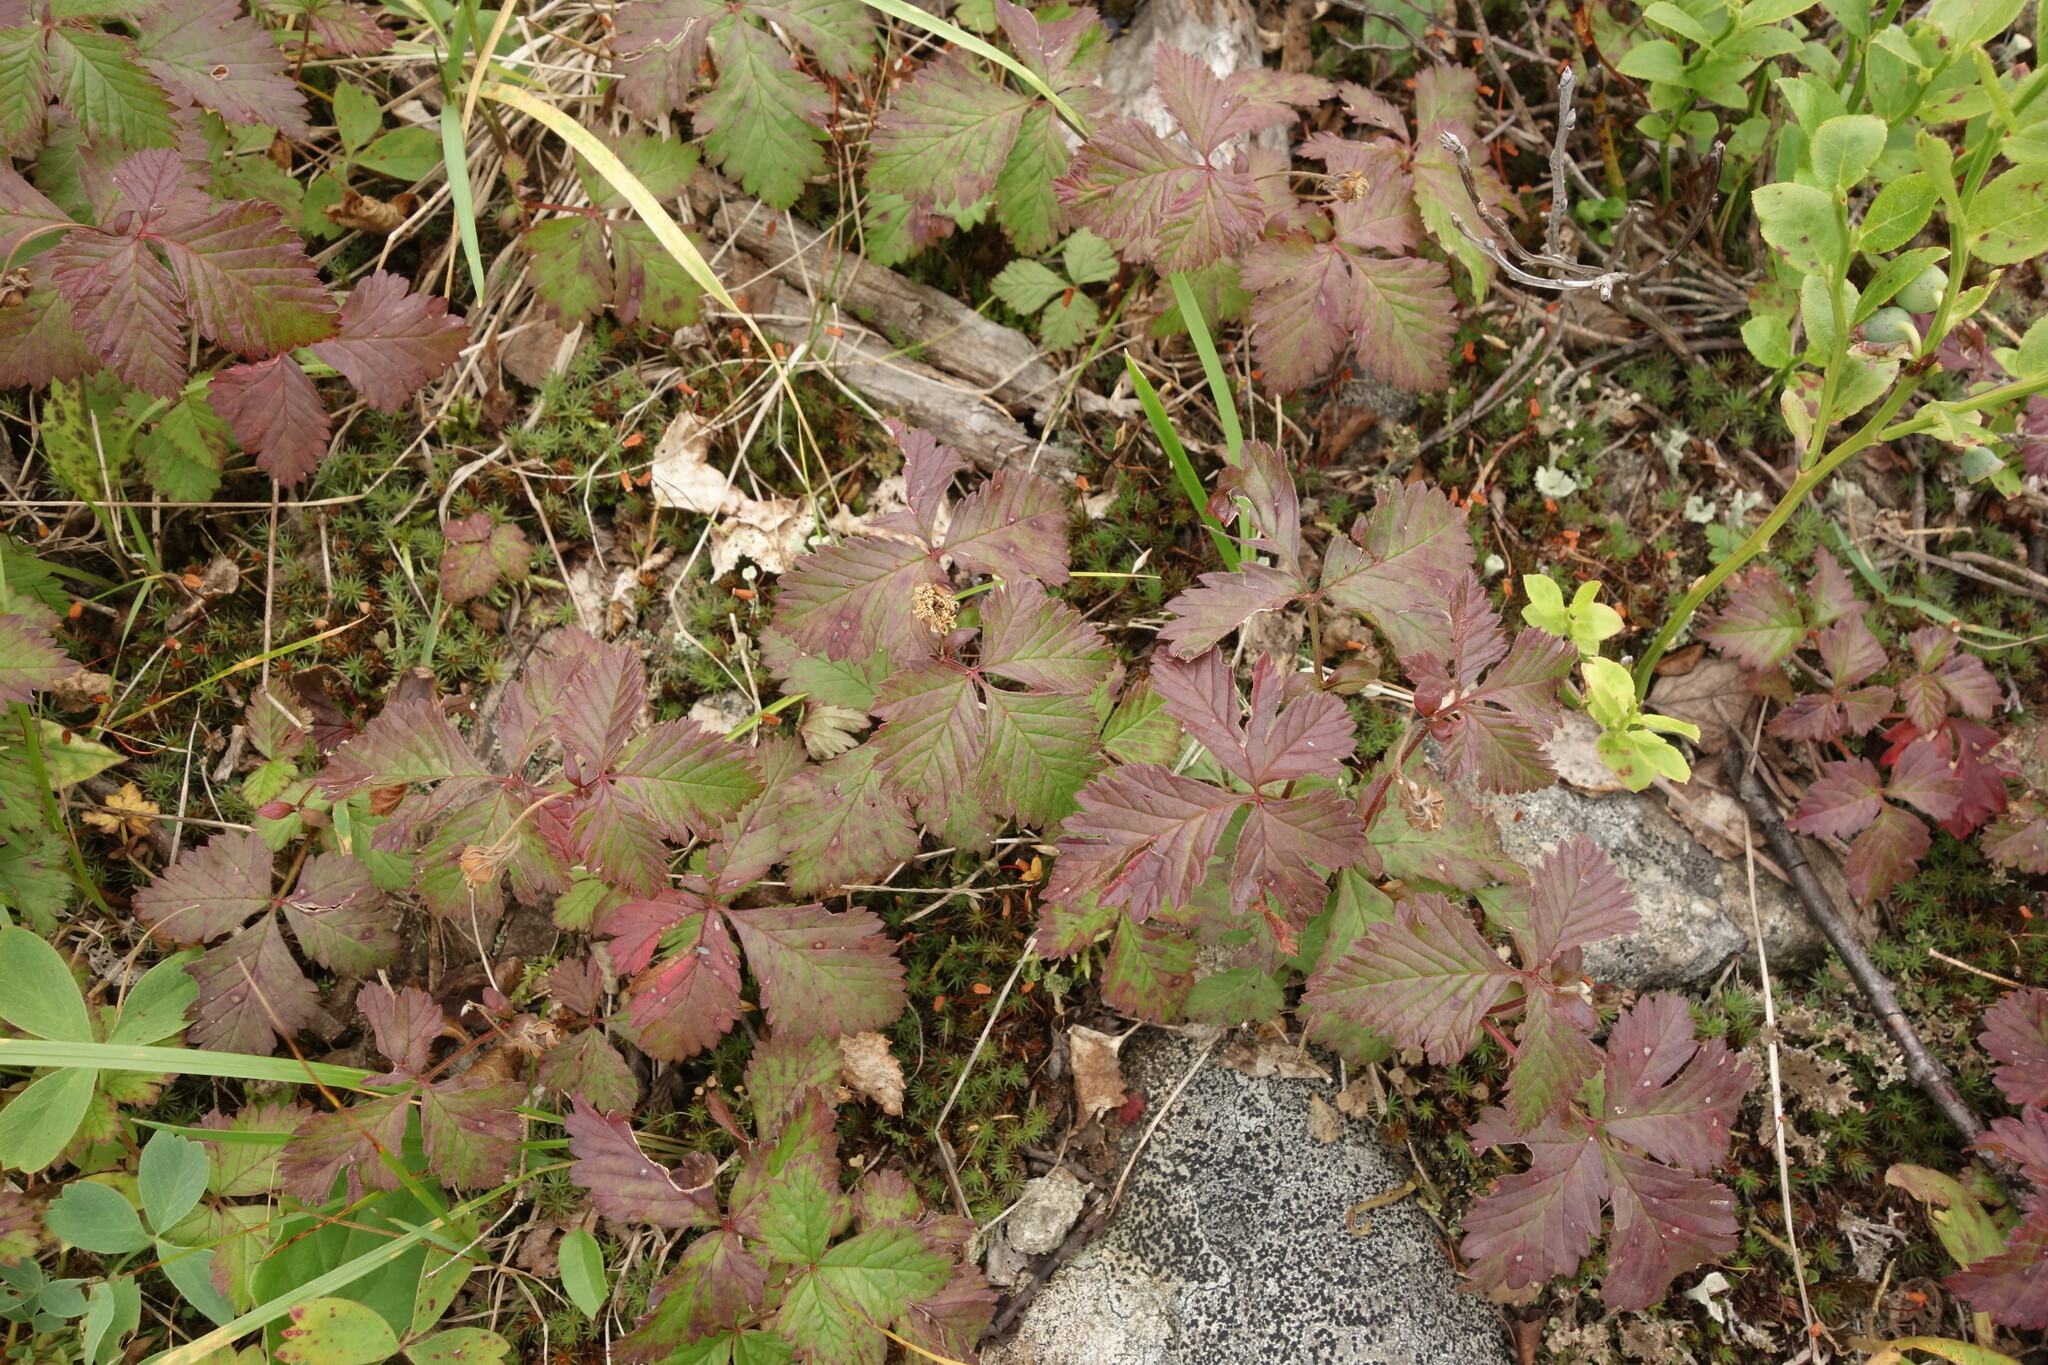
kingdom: Plantae
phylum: Tracheophyta
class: Magnoliopsida
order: Rosales
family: Rosaceae
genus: Rubus
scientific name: Rubus arcticus
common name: Arctic bramble
